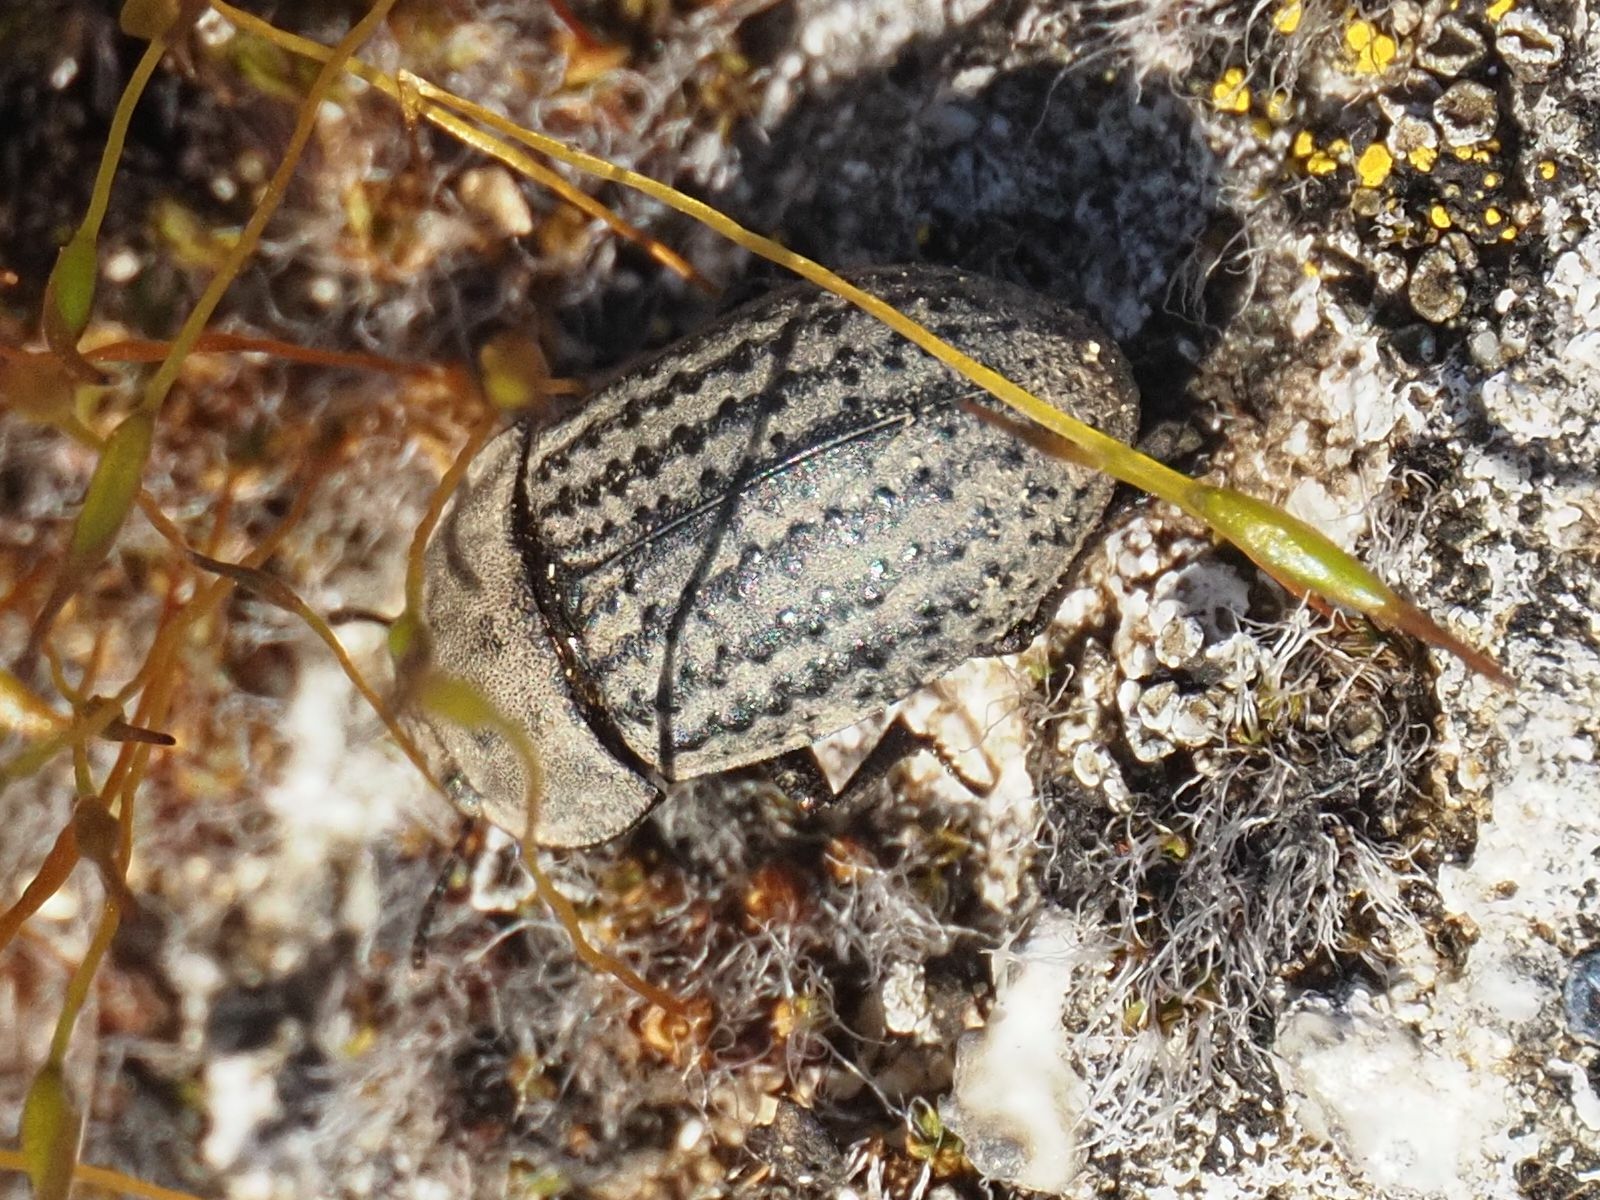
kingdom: Animalia
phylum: Arthropoda
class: Insecta
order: Coleoptera
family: Tenebrionidae
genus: Opatrum
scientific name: Opatrum sabulosum
